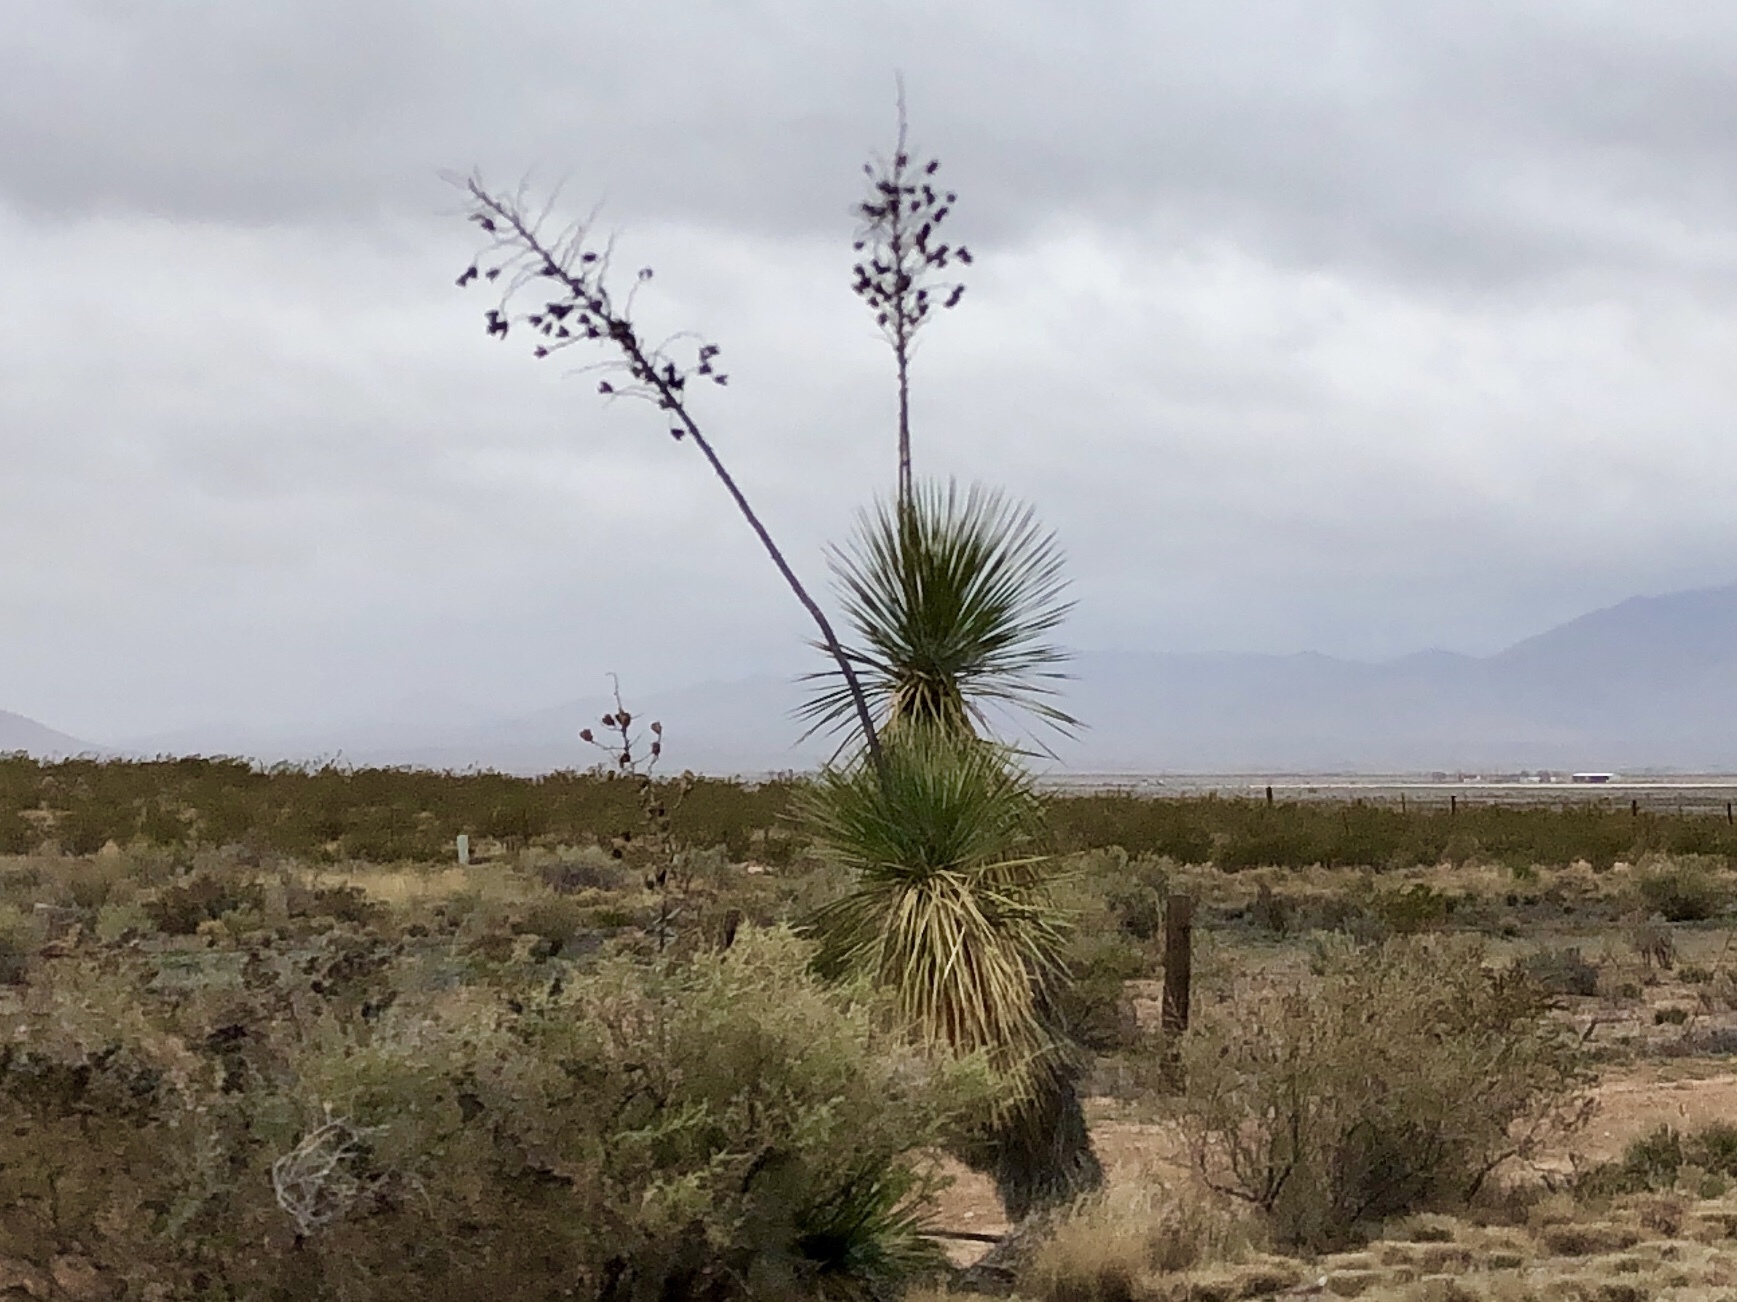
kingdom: Plantae
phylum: Tracheophyta
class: Liliopsida
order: Asparagales
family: Asparagaceae
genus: Yucca
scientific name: Yucca elata
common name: Palmella
